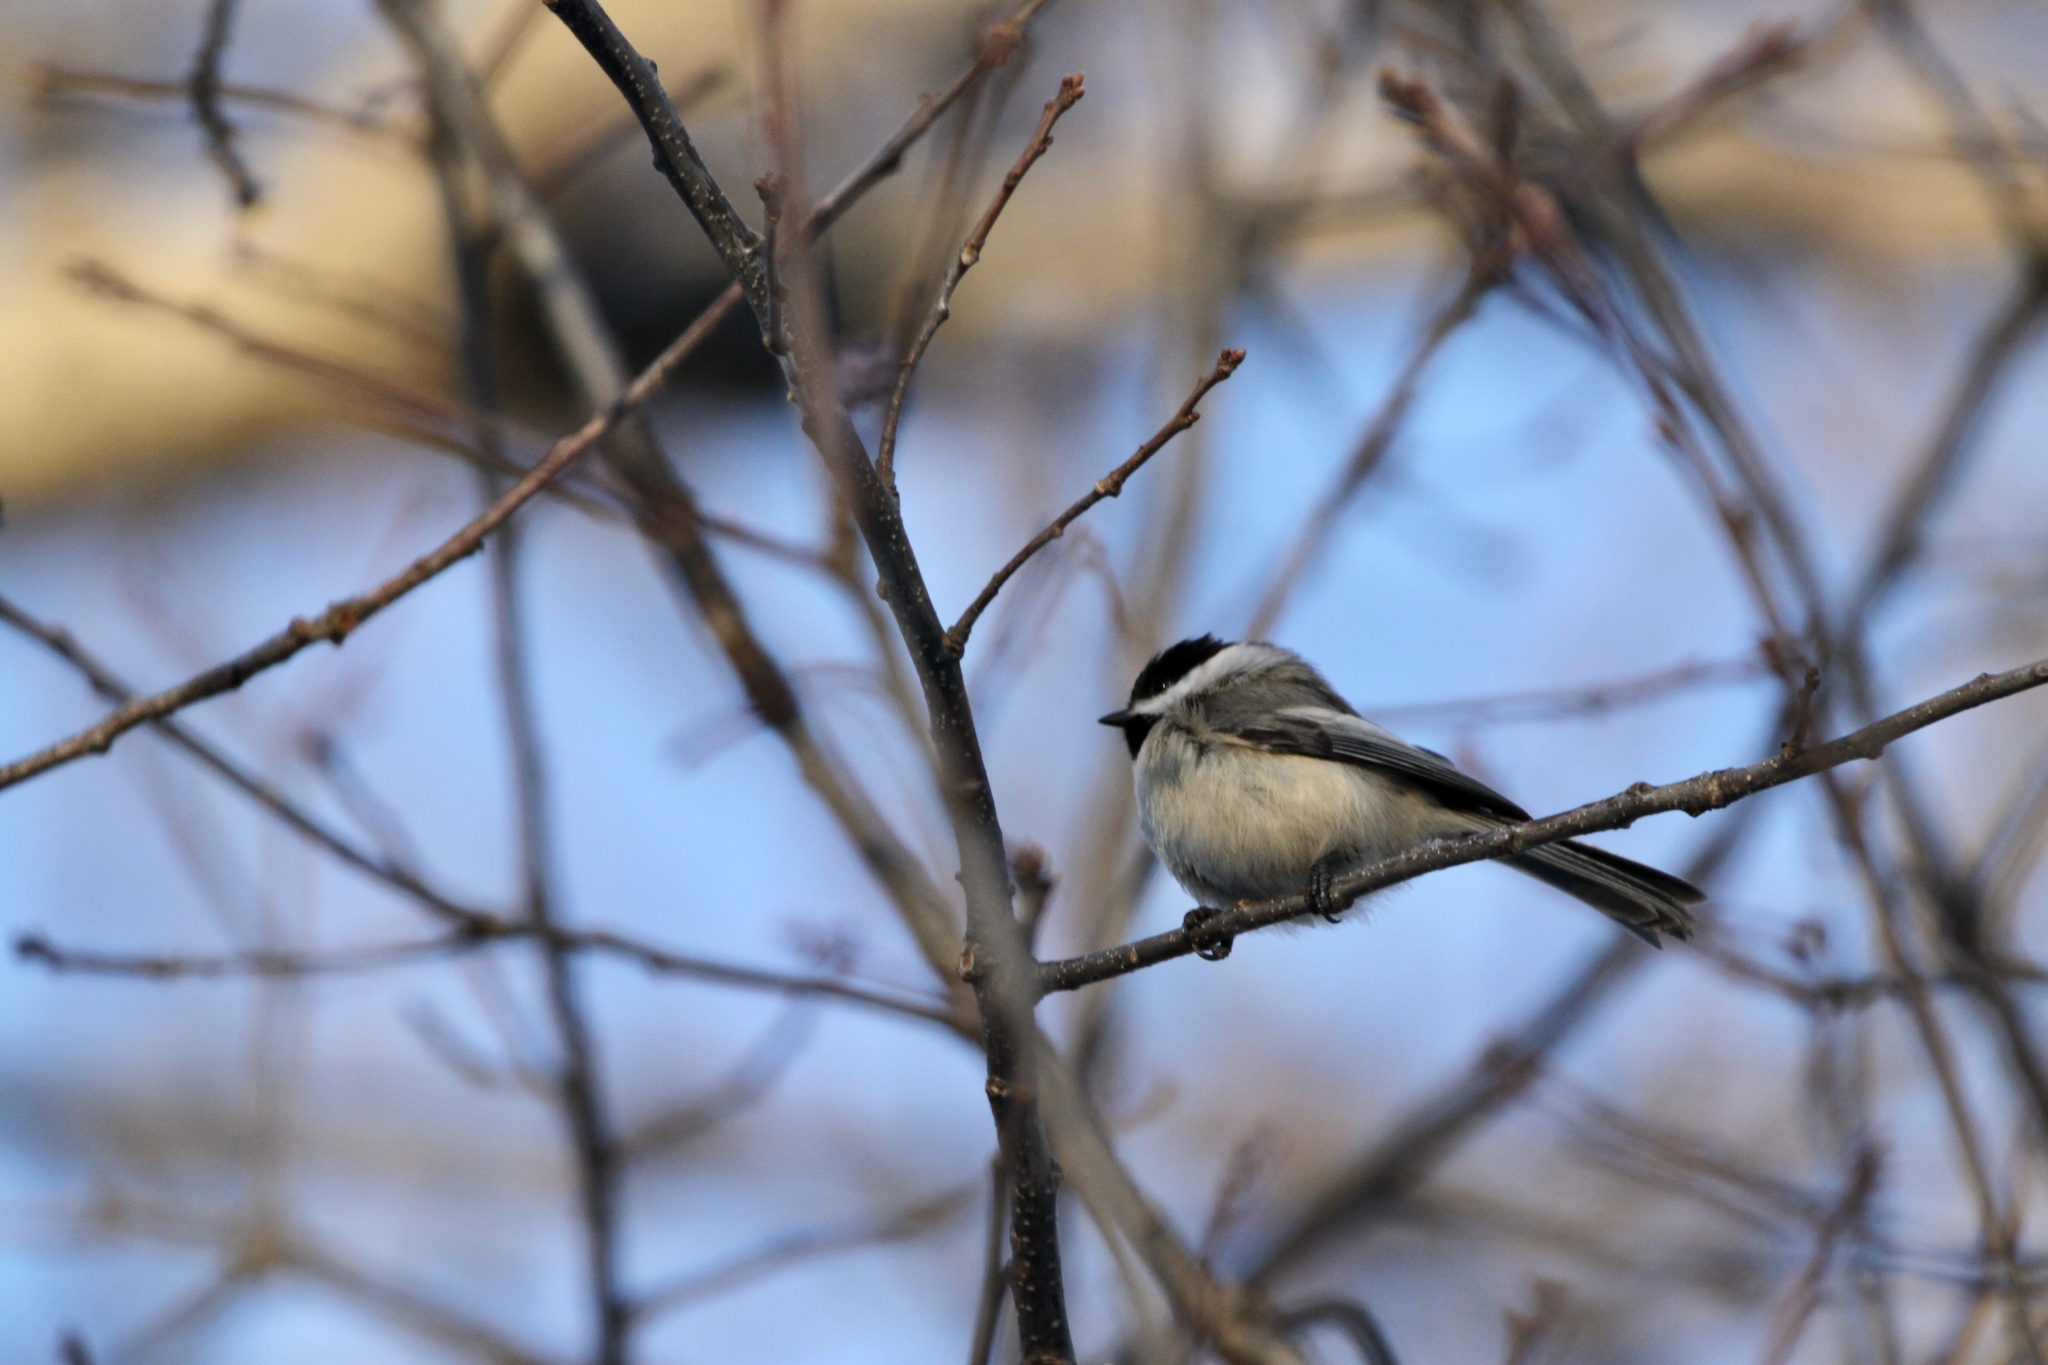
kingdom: Animalia
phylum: Chordata
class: Aves
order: Passeriformes
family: Paridae
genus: Poecile
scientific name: Poecile atricapillus
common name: Black-capped chickadee
